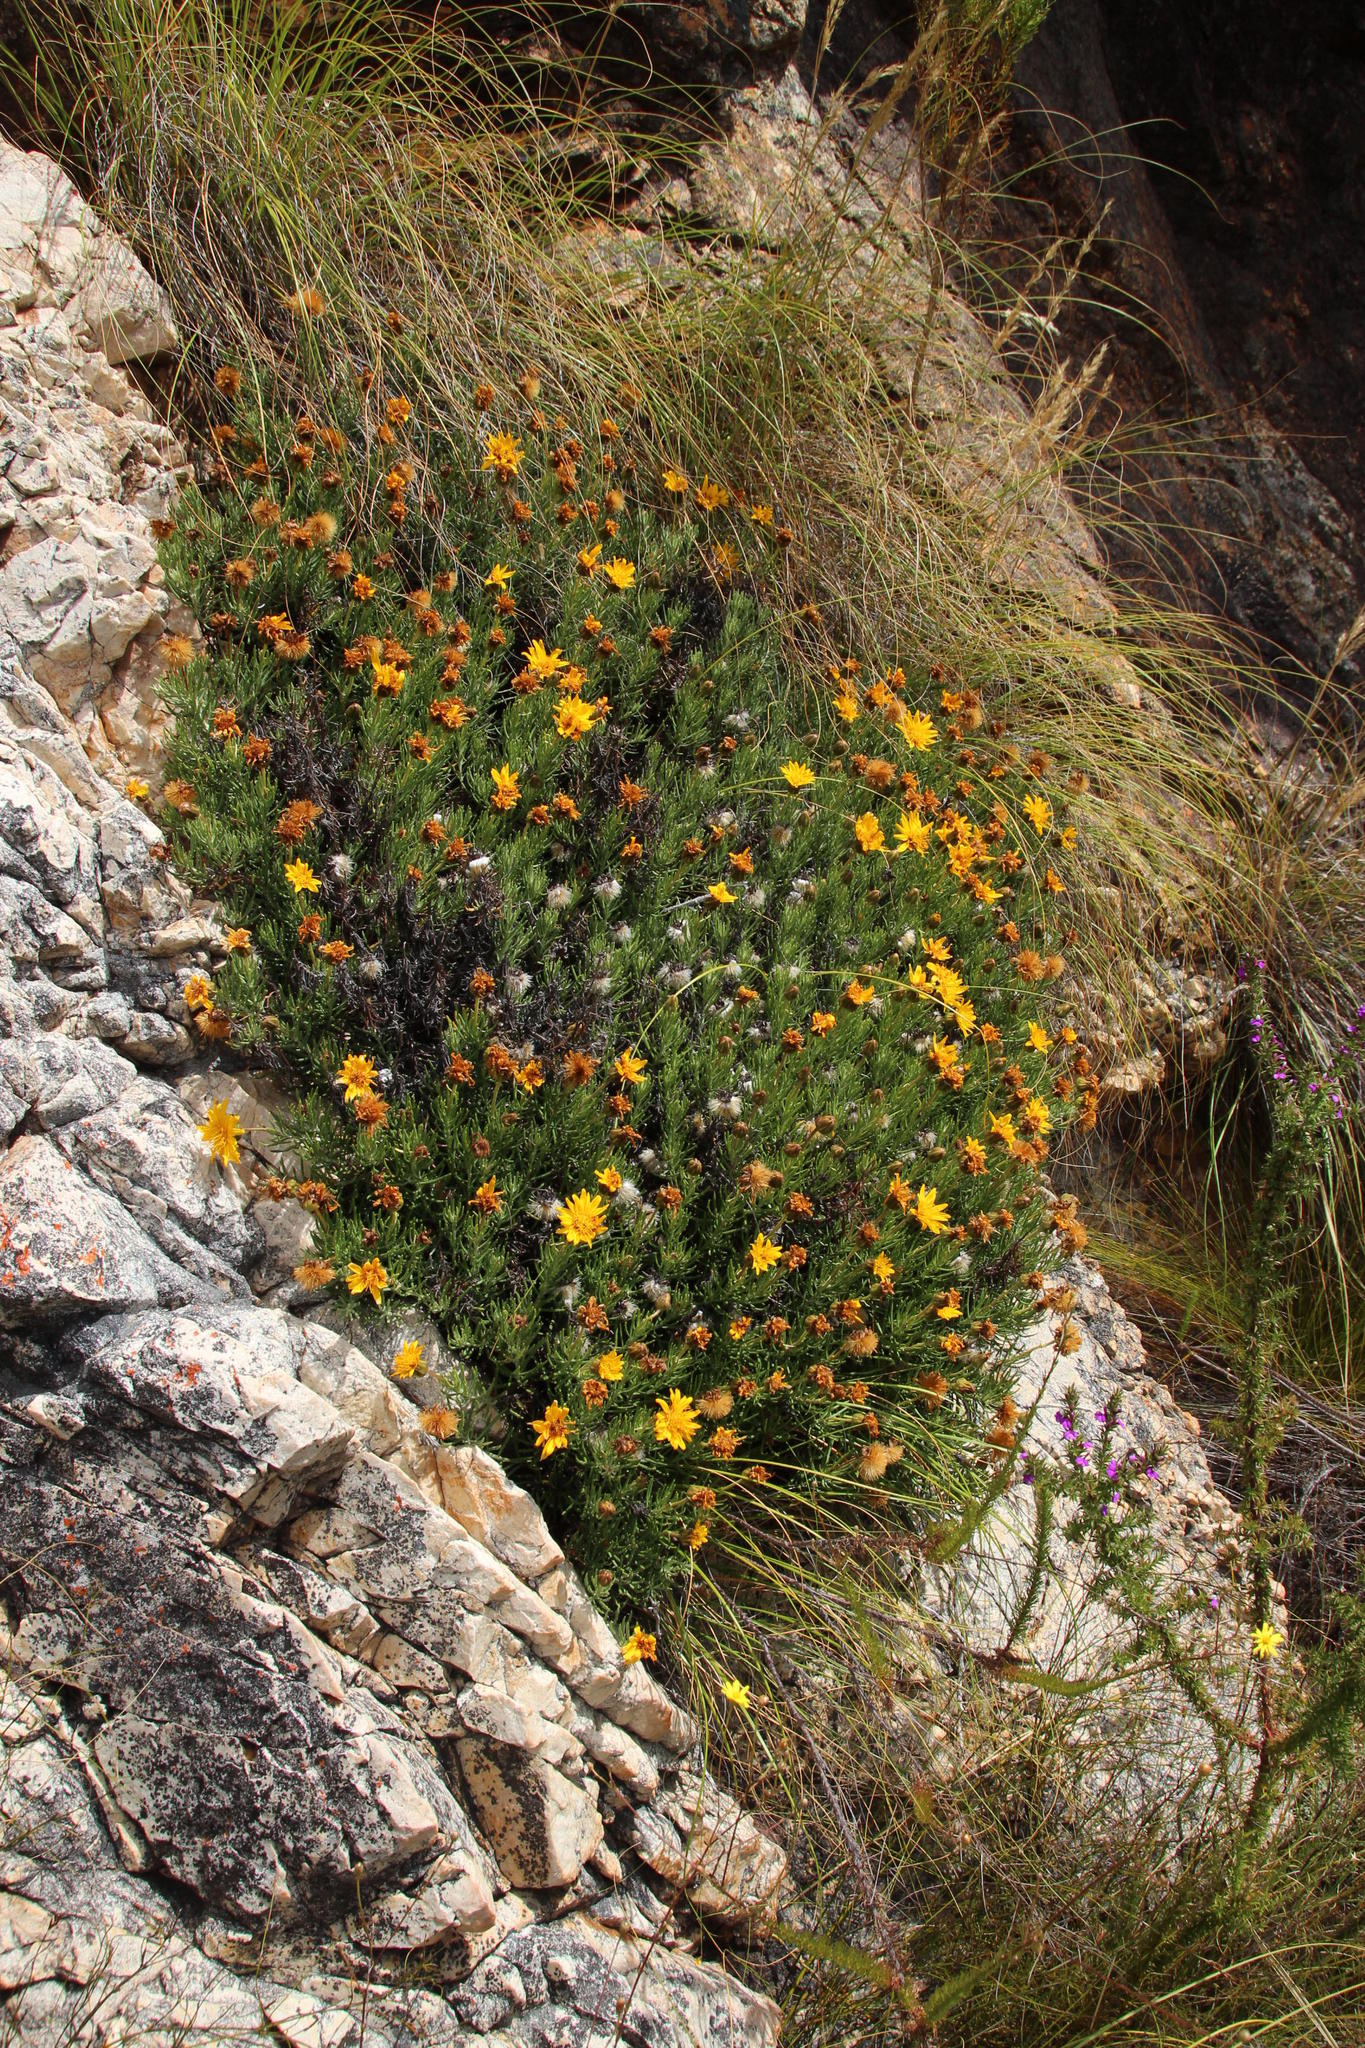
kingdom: Plantae
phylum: Tracheophyta
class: Magnoliopsida
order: Asterales
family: Asteraceae
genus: Heterolepis
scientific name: Heterolepis aliena
